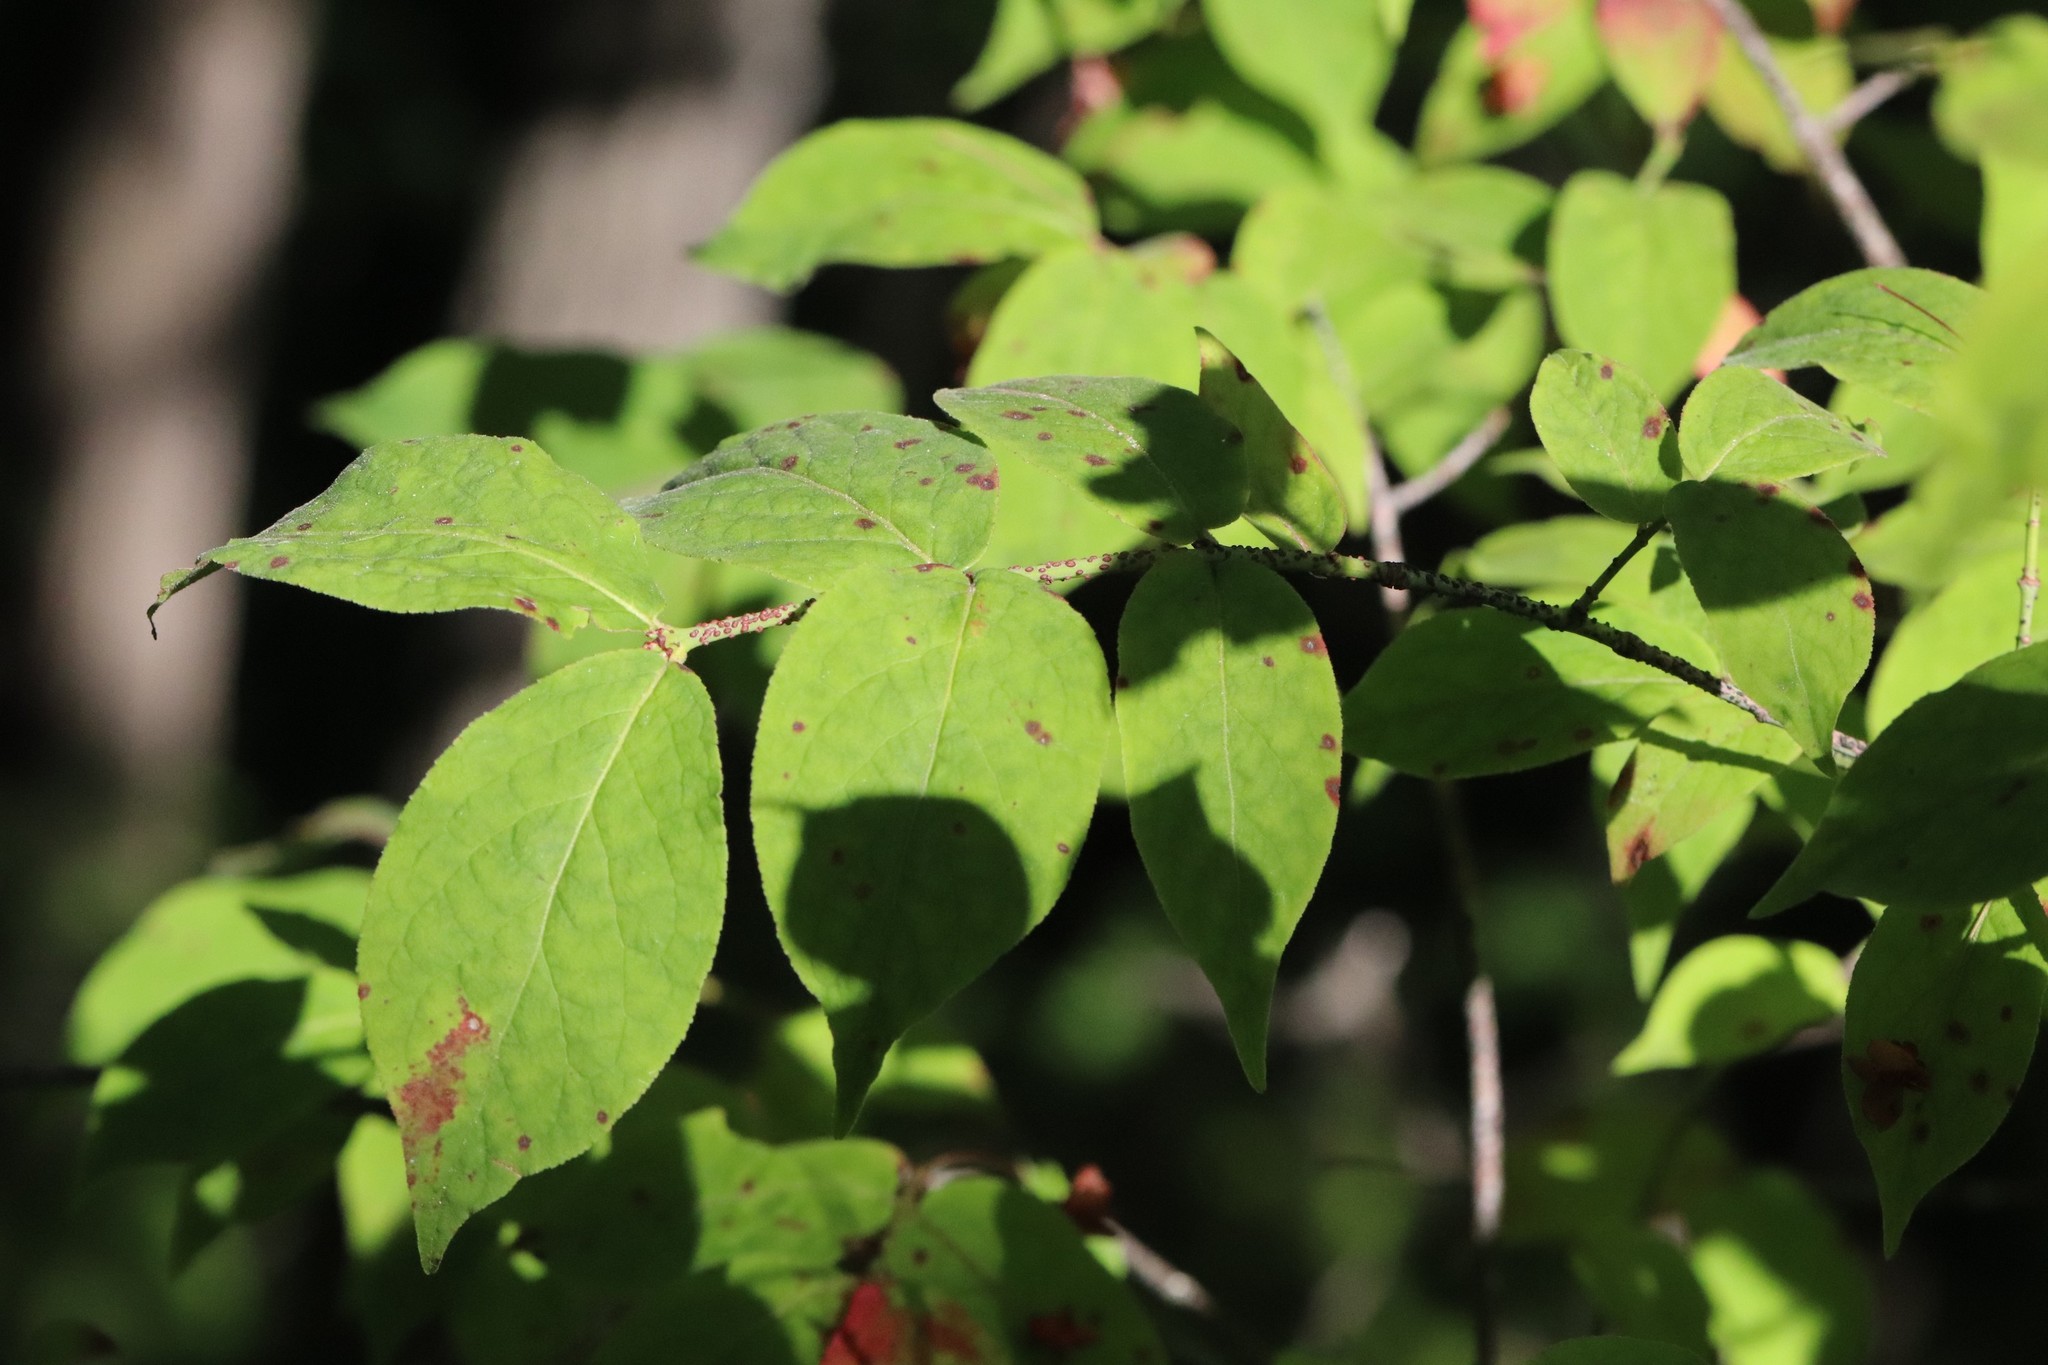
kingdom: Plantae
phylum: Tracheophyta
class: Magnoliopsida
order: Celastrales
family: Celastraceae
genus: Euonymus
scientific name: Euonymus verrucosus
